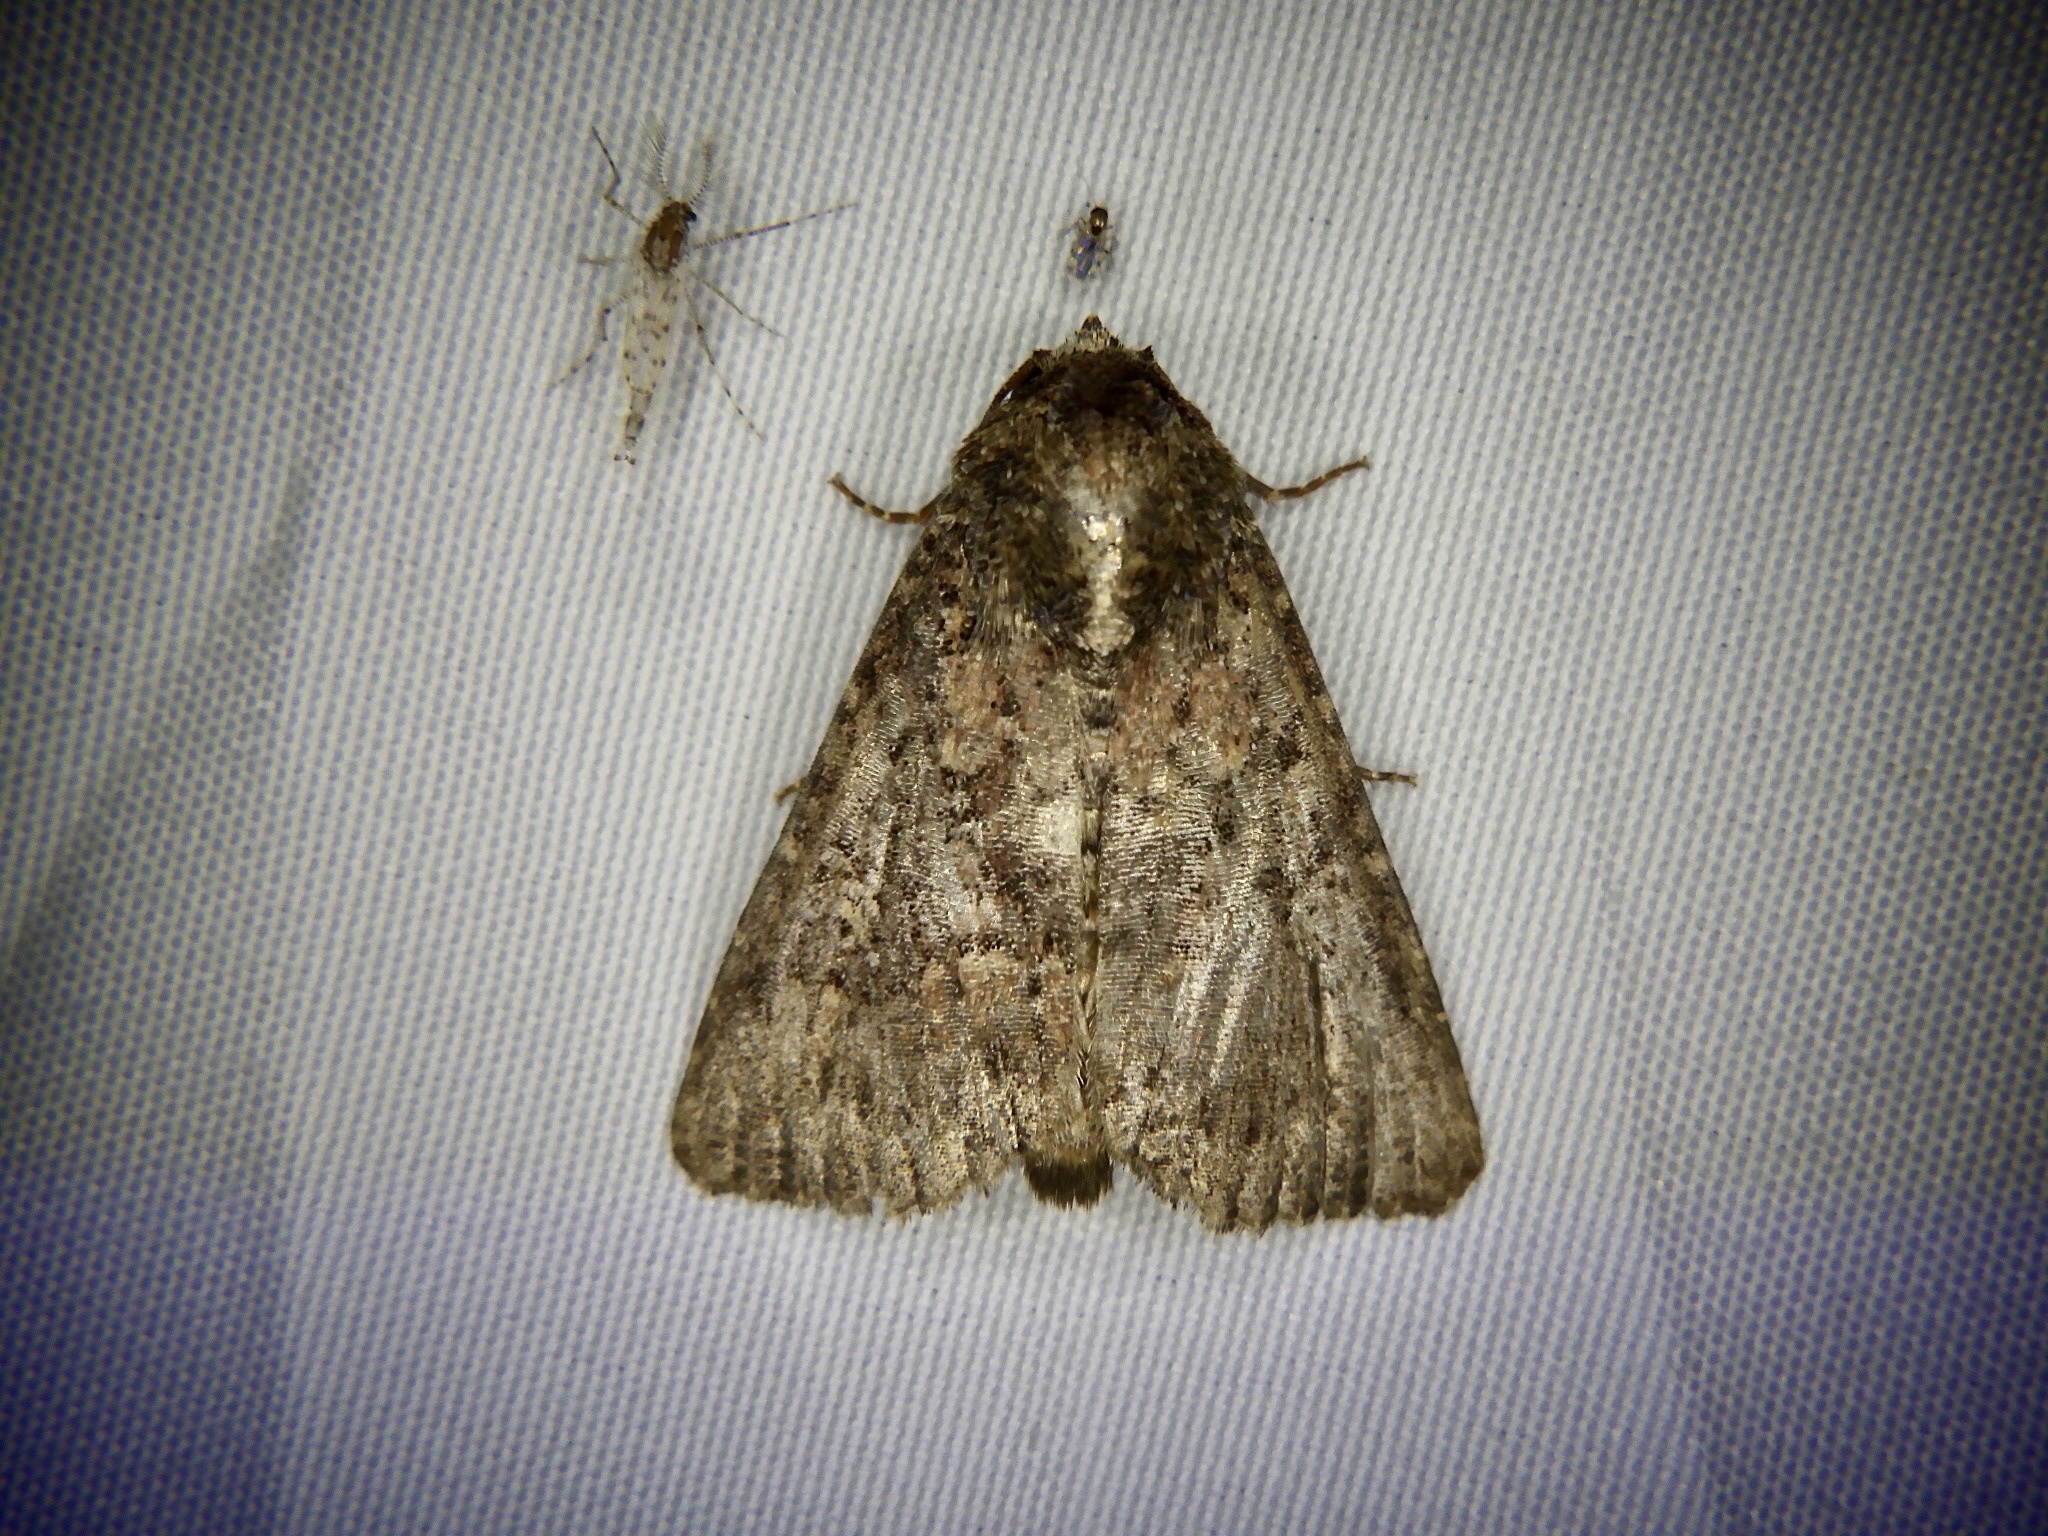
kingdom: Animalia
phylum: Arthropoda
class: Insecta
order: Lepidoptera
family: Noctuidae
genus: Condica
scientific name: Condica illecta
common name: Cutworm
